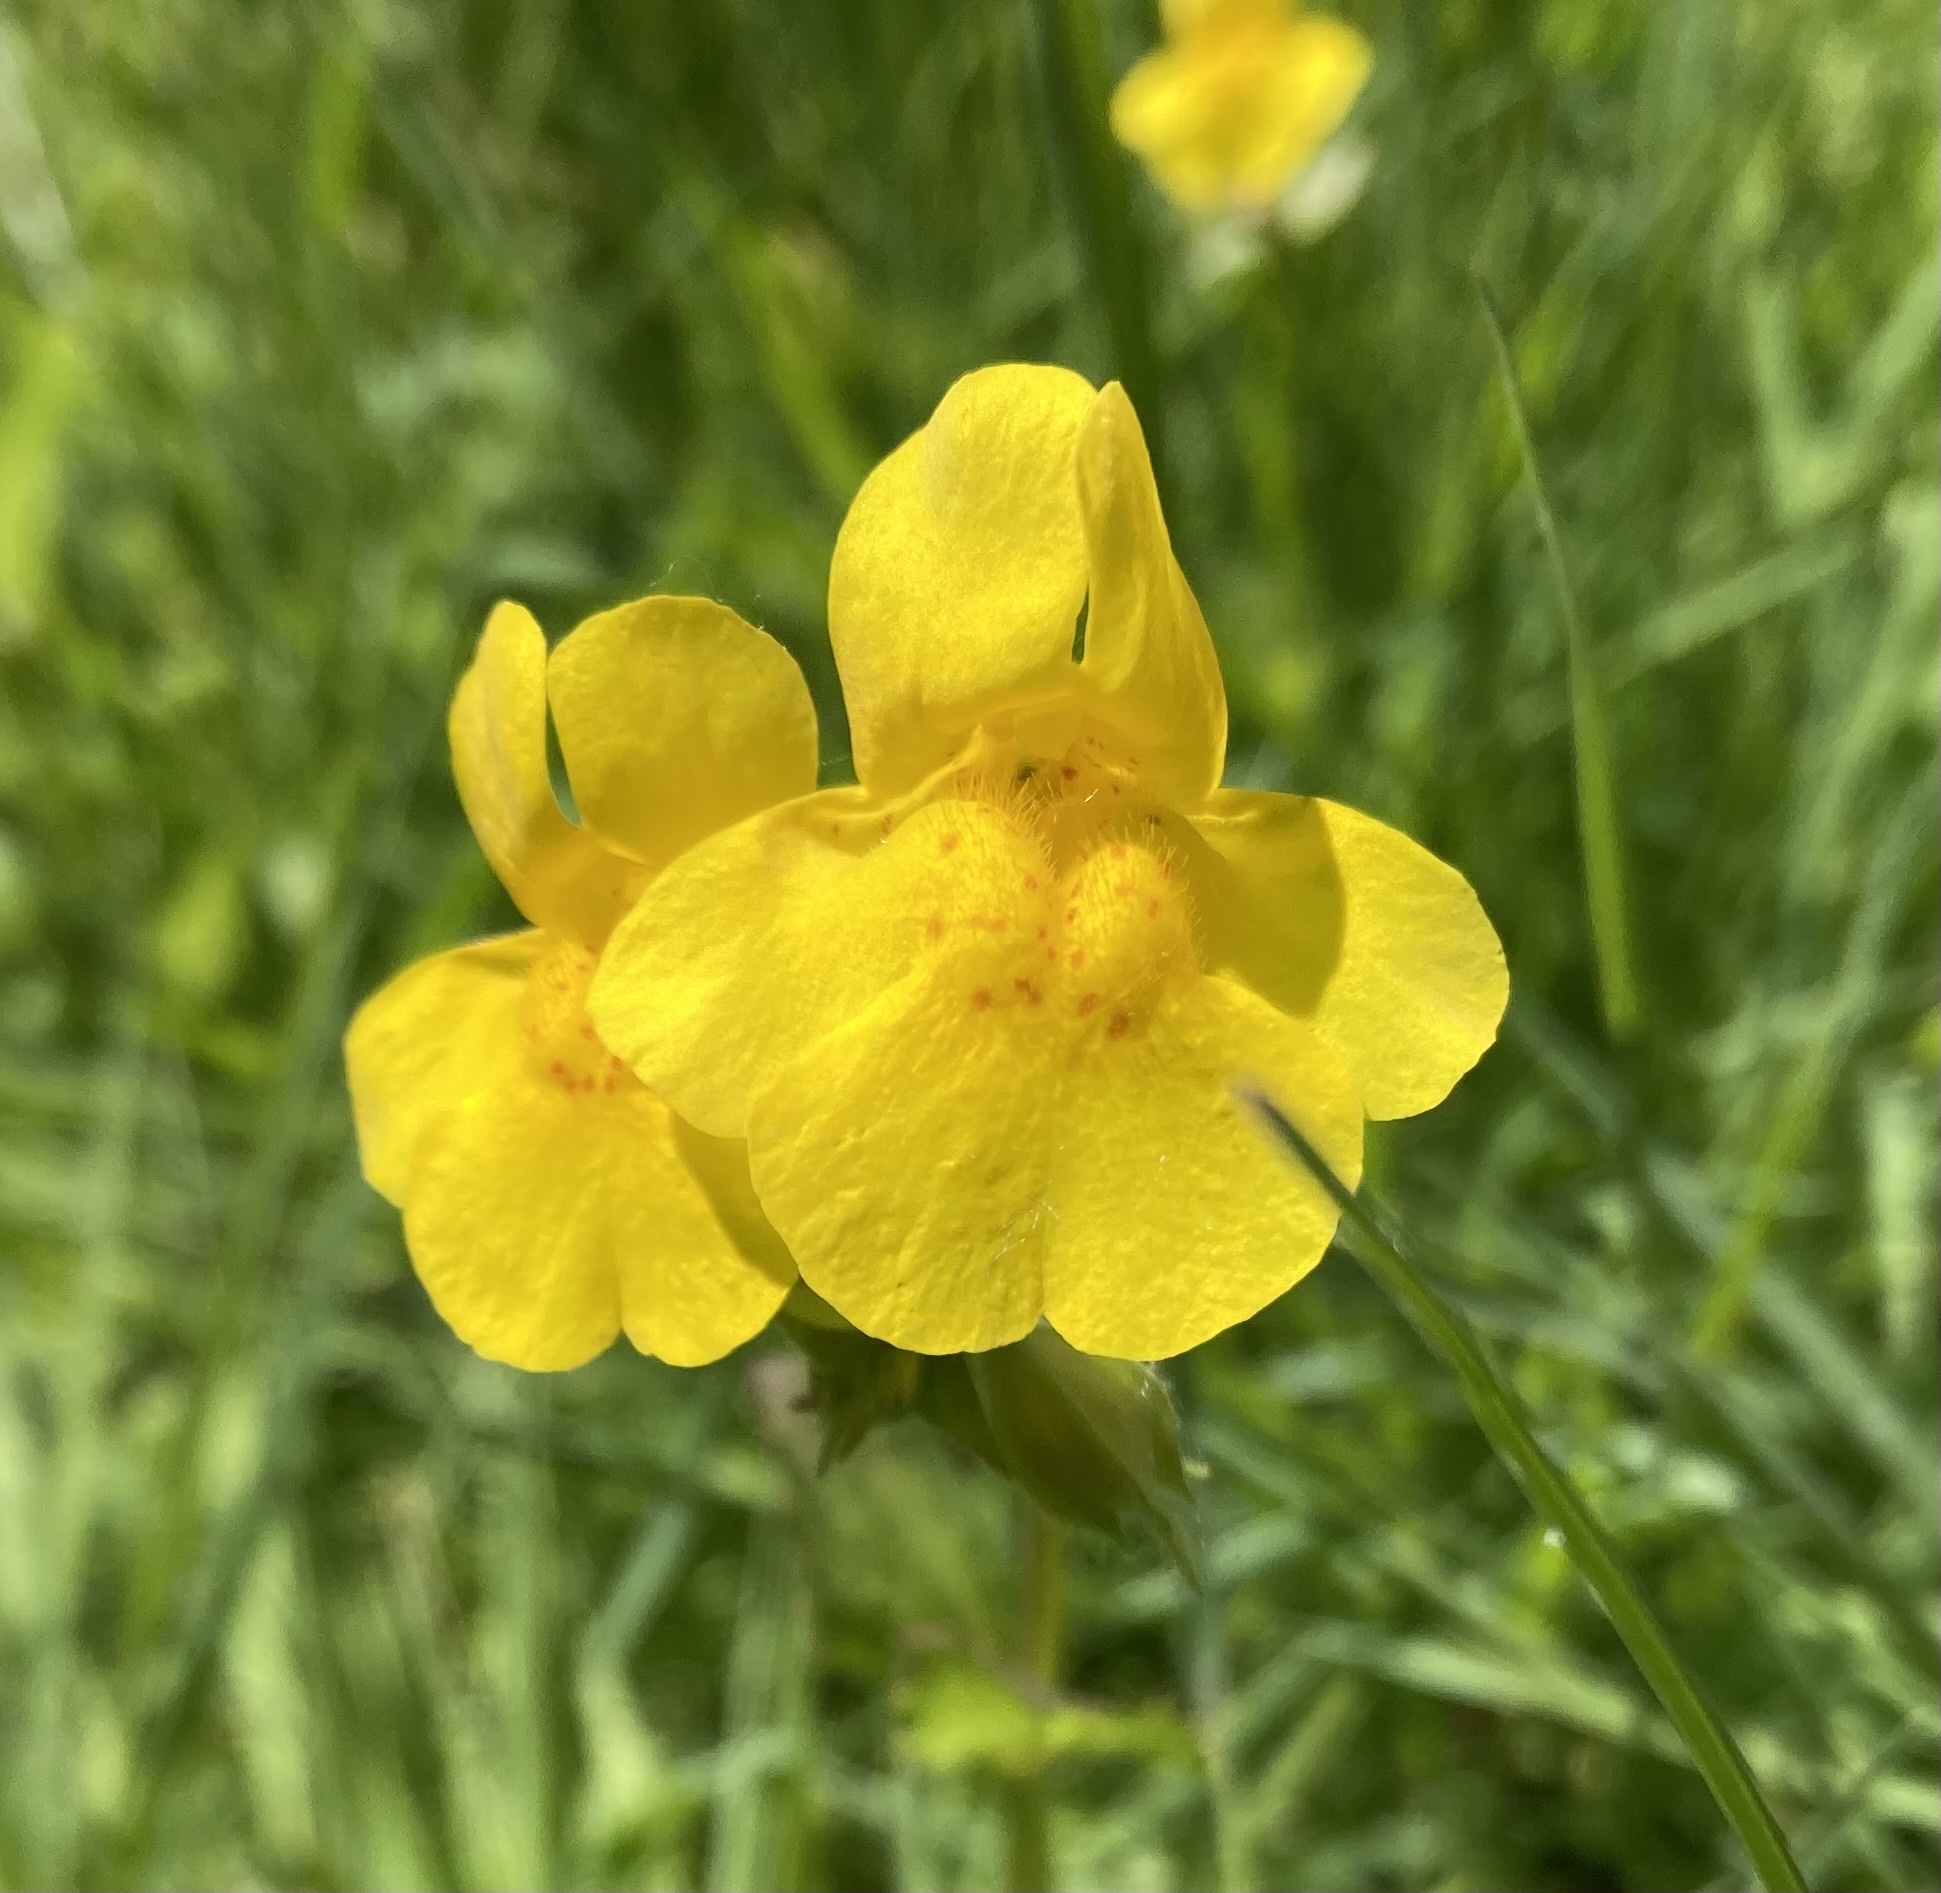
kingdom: Plantae
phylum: Tracheophyta
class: Magnoliopsida
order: Lamiales
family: Phrymaceae
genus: Erythranthe
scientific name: Erythranthe guttata
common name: Monkeyflower
